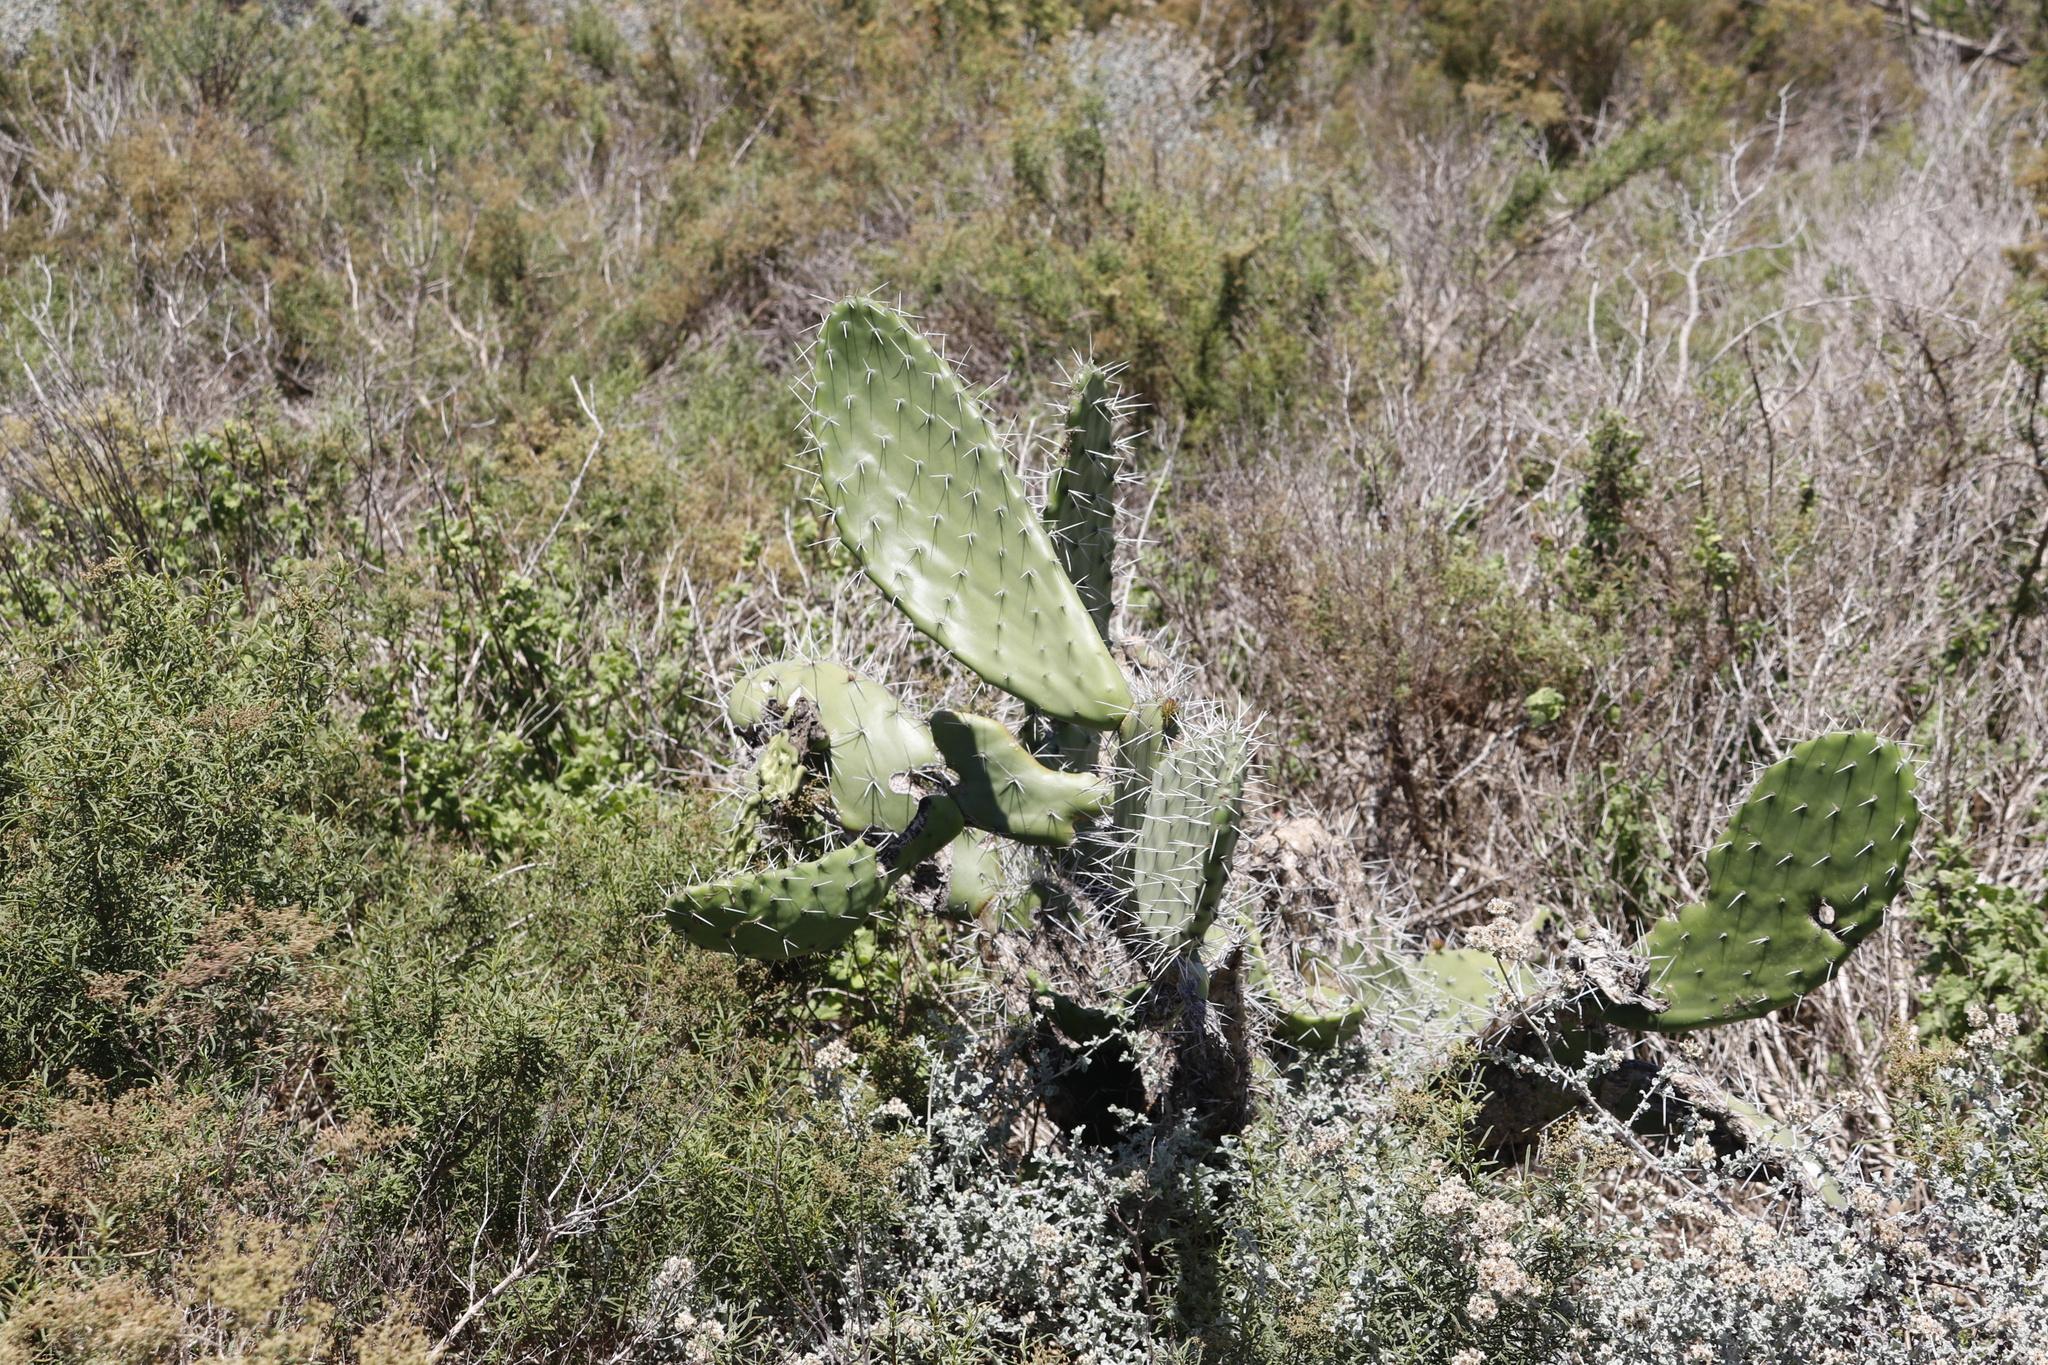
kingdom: Plantae
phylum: Tracheophyta
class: Magnoliopsida
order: Caryophyllales
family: Cactaceae
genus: Opuntia
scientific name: Opuntia ficus-indica
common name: Barbary fig
